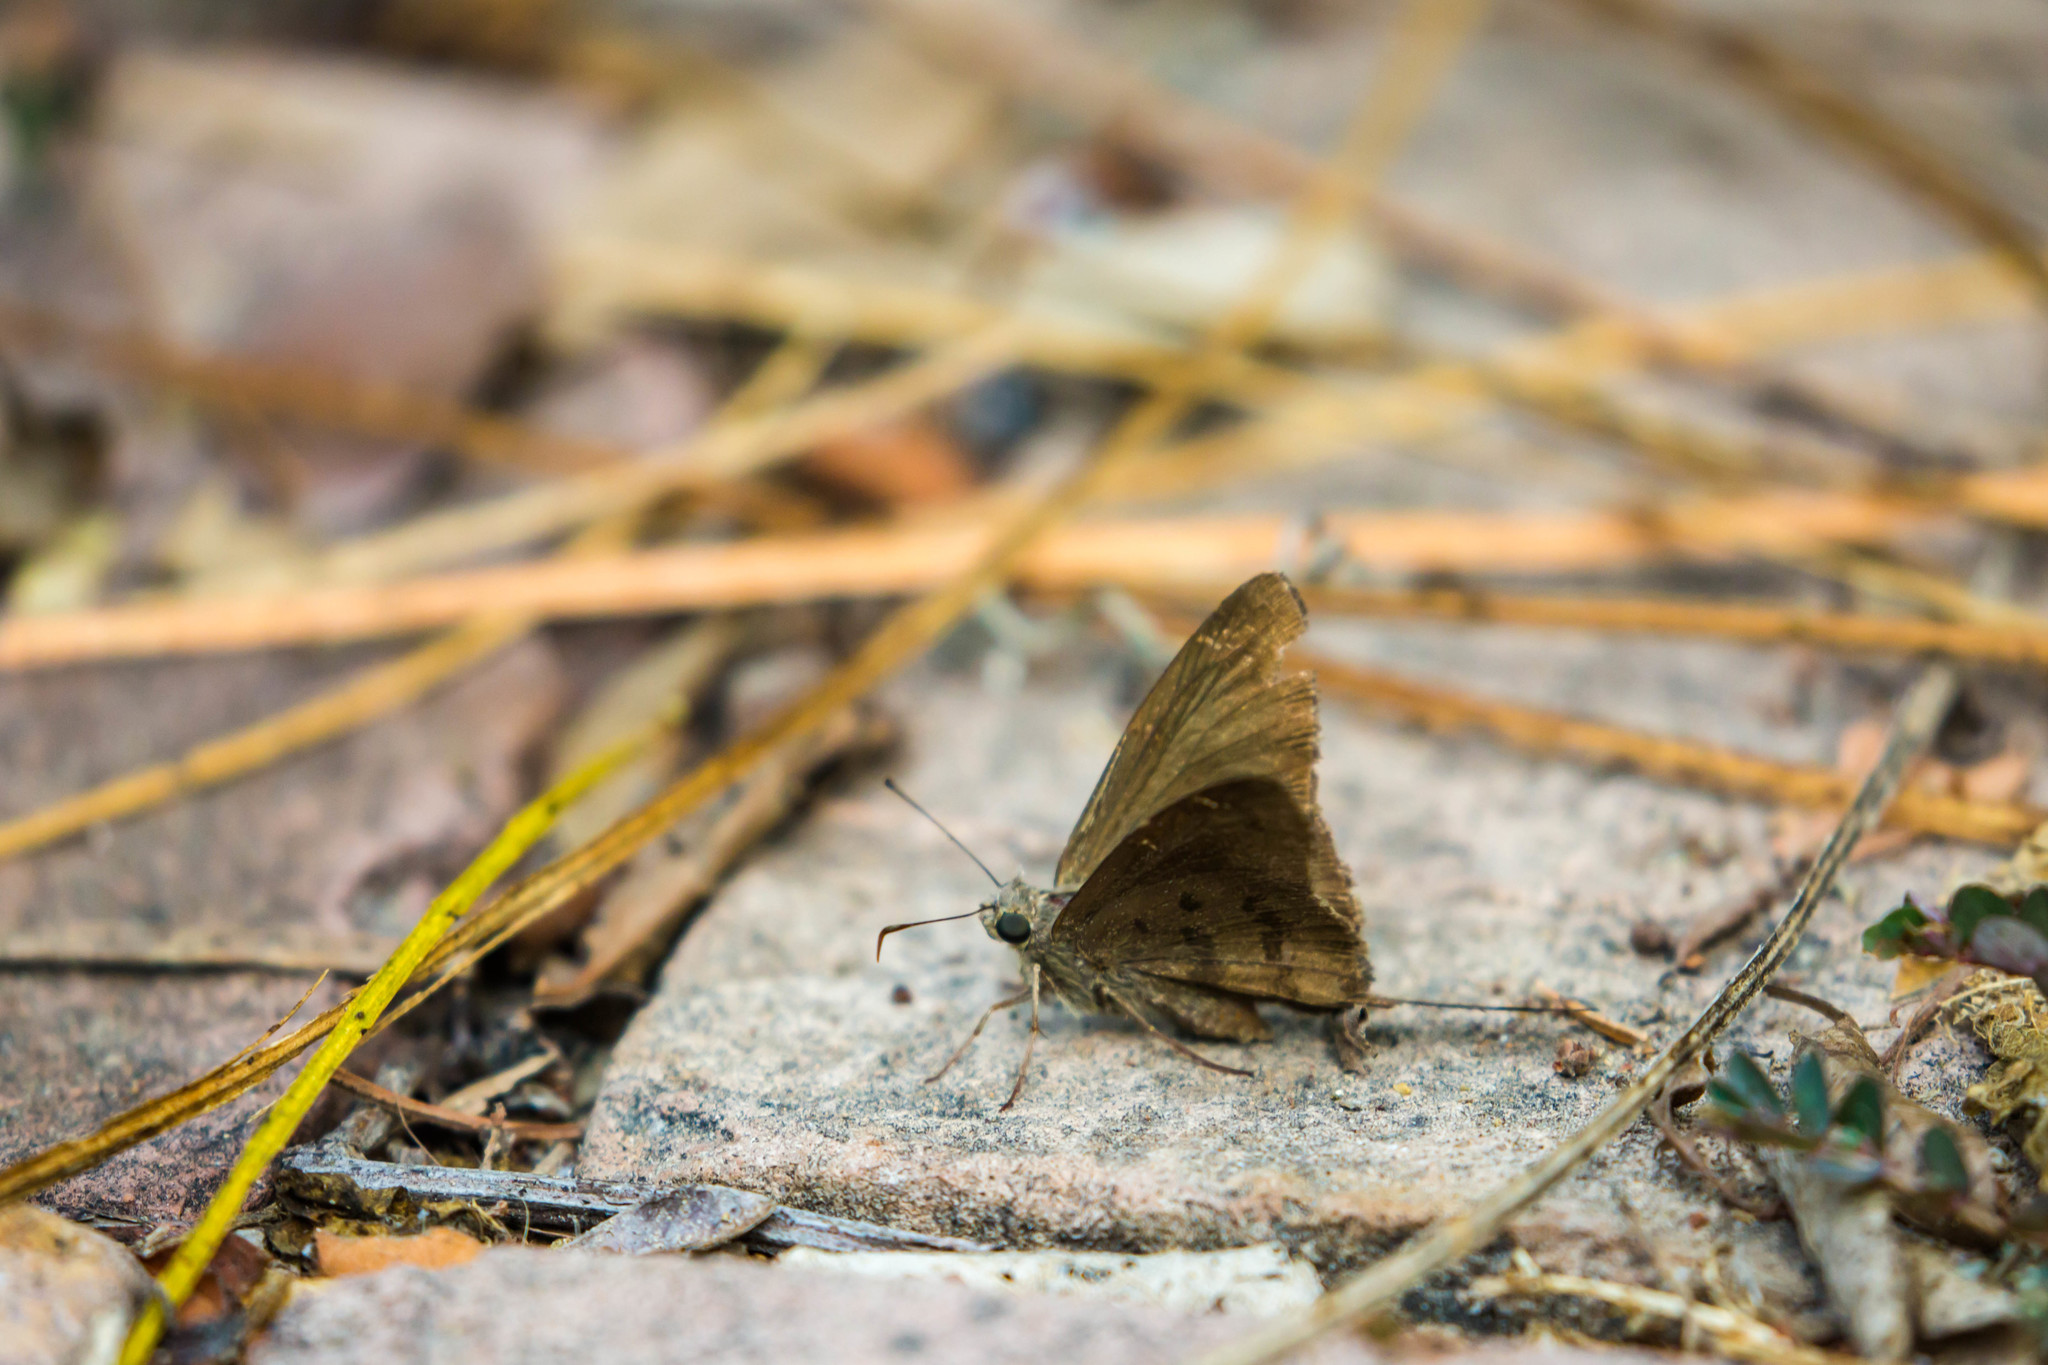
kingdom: Animalia
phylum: Arthropoda
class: Insecta
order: Lepidoptera
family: Hesperiidae
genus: Urbanus
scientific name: Urbanus procne
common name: Brown longtail
